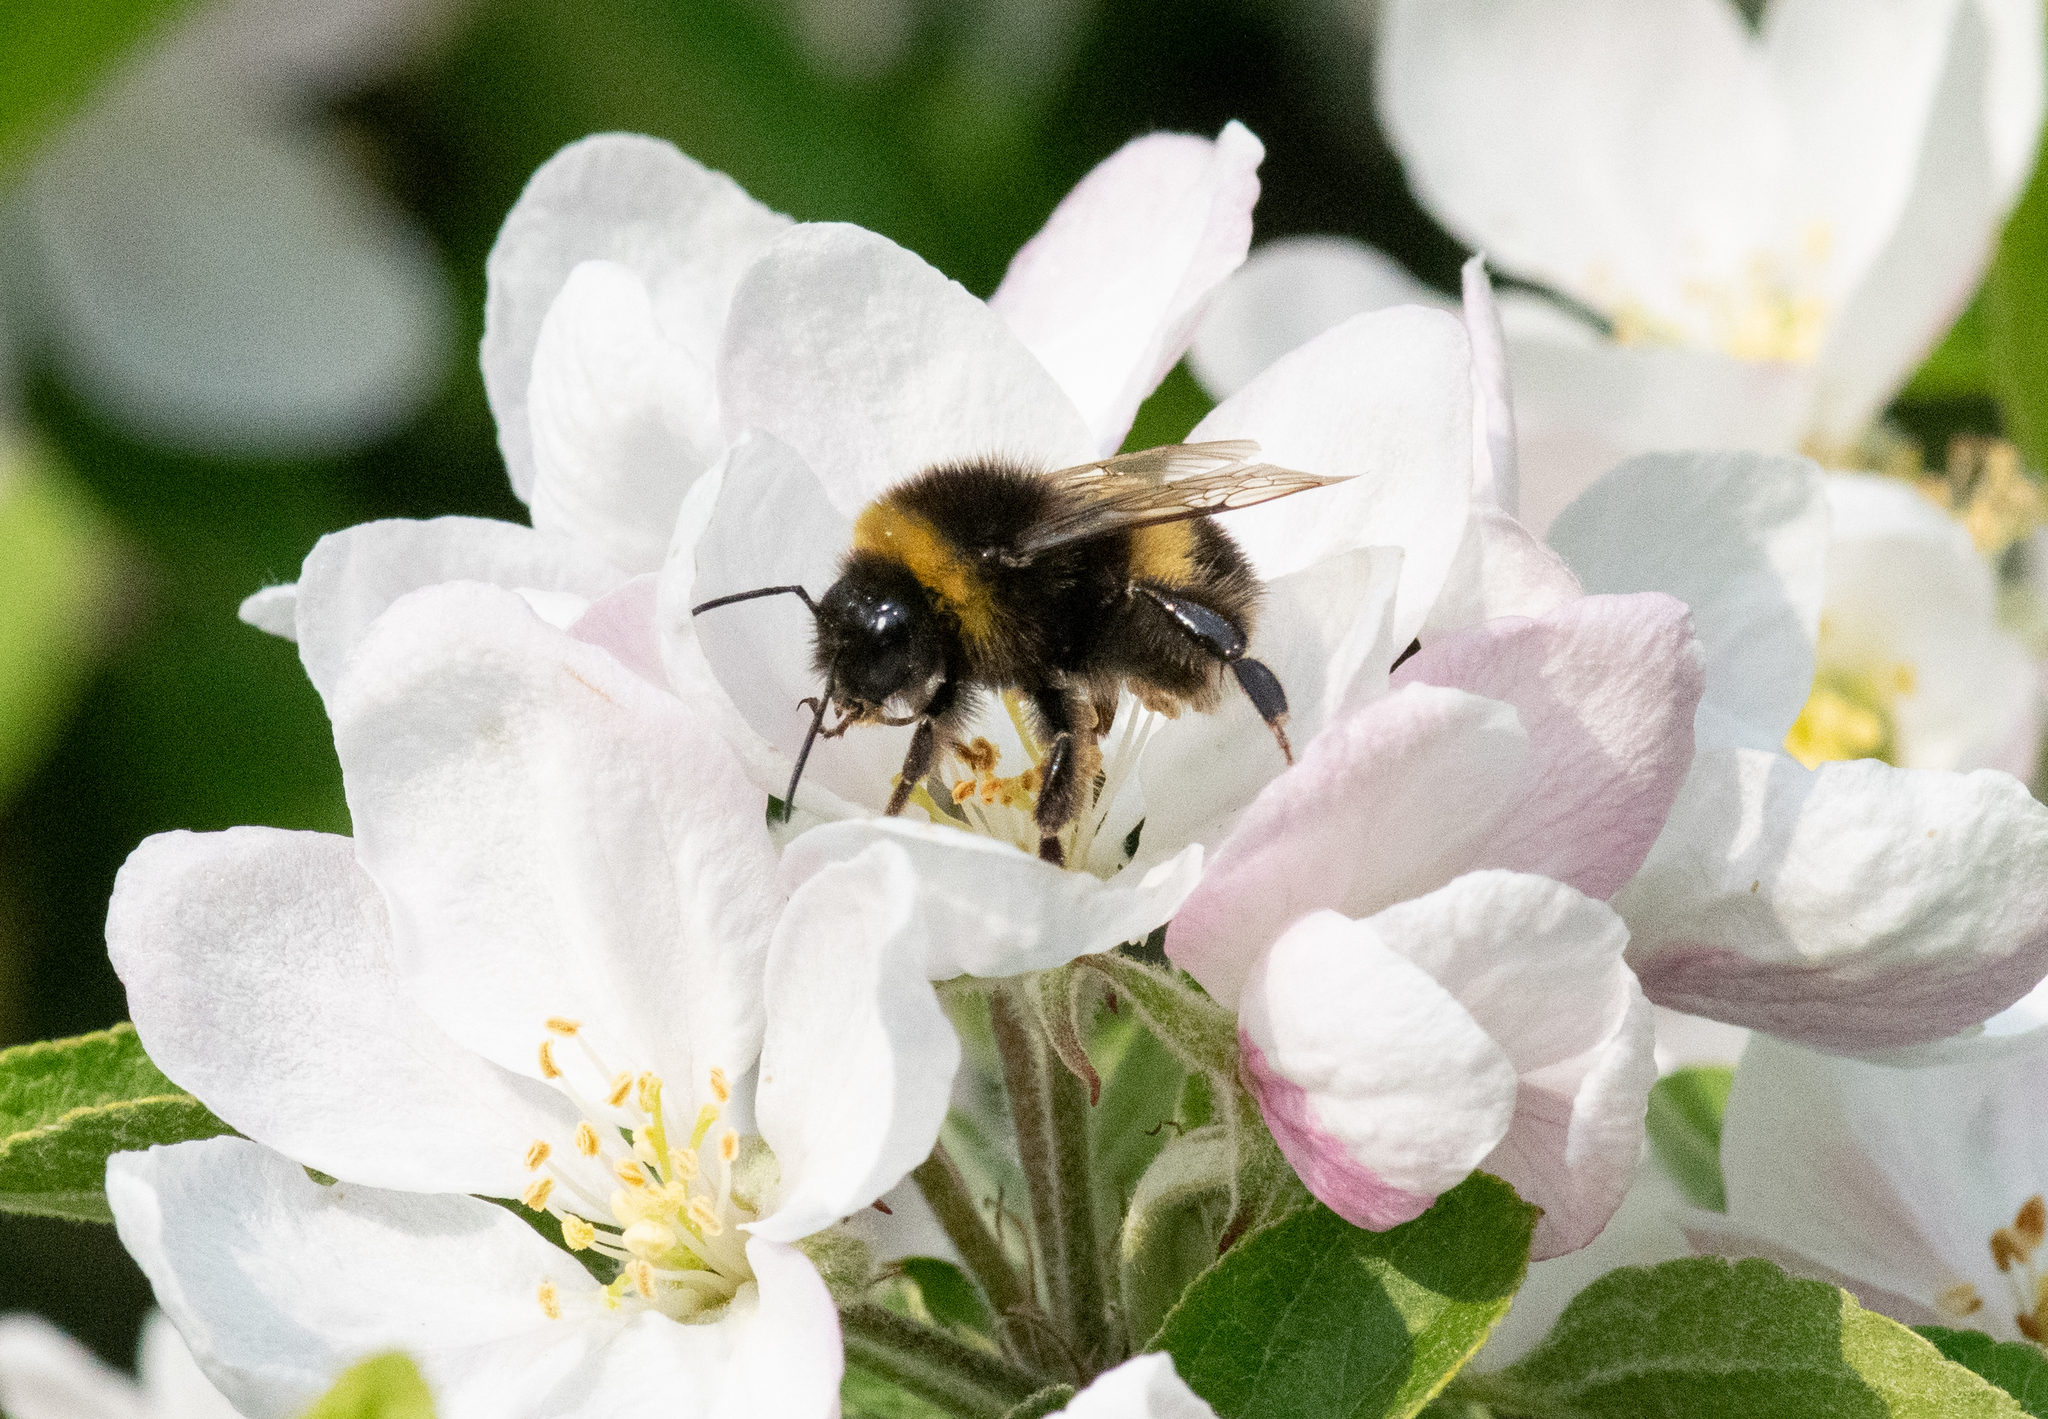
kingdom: Animalia
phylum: Arthropoda
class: Insecta
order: Hymenoptera
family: Apidae
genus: Bombus
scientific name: Bombus terrestris
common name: Buff-tailed bumblebee
